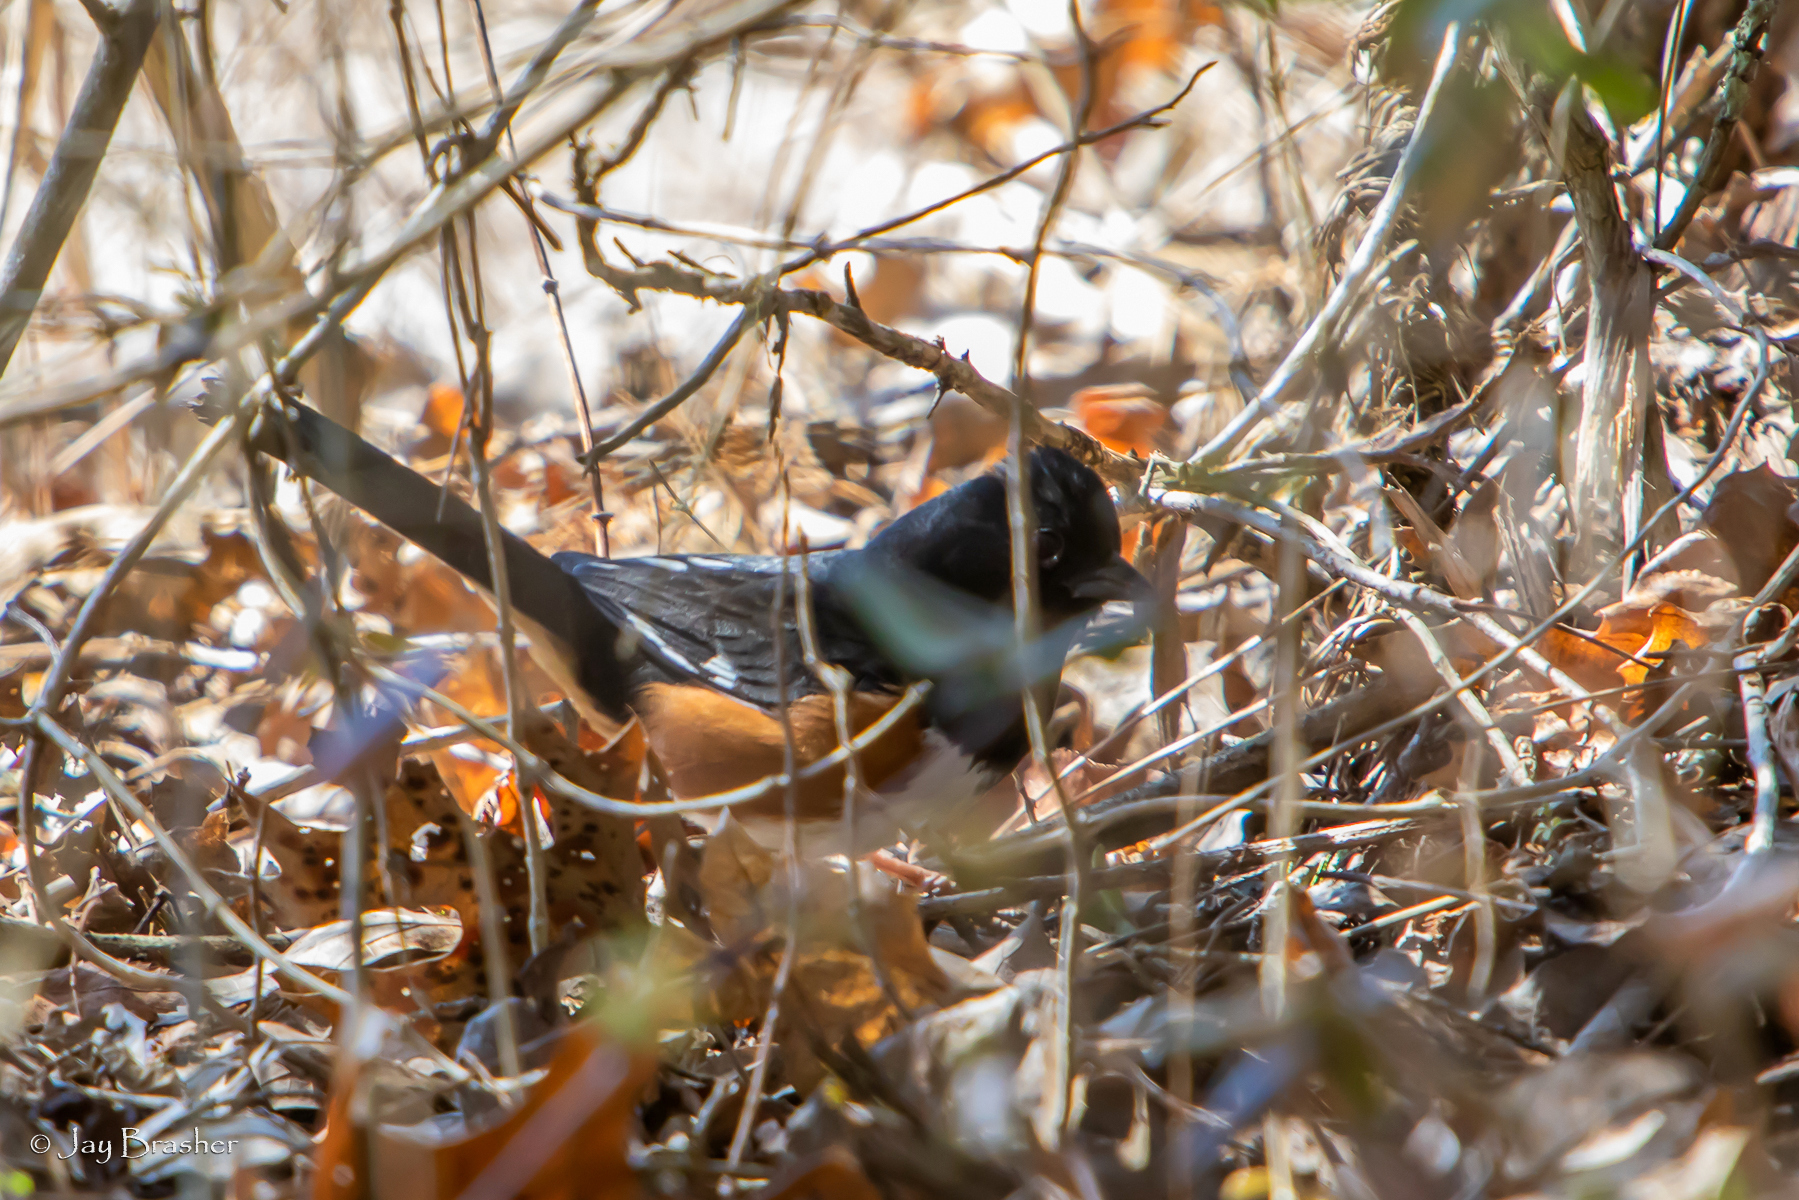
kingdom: Animalia
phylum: Chordata
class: Aves
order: Passeriformes
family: Passerellidae
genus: Pipilo
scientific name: Pipilo erythrophthalmus
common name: Eastern towhee
